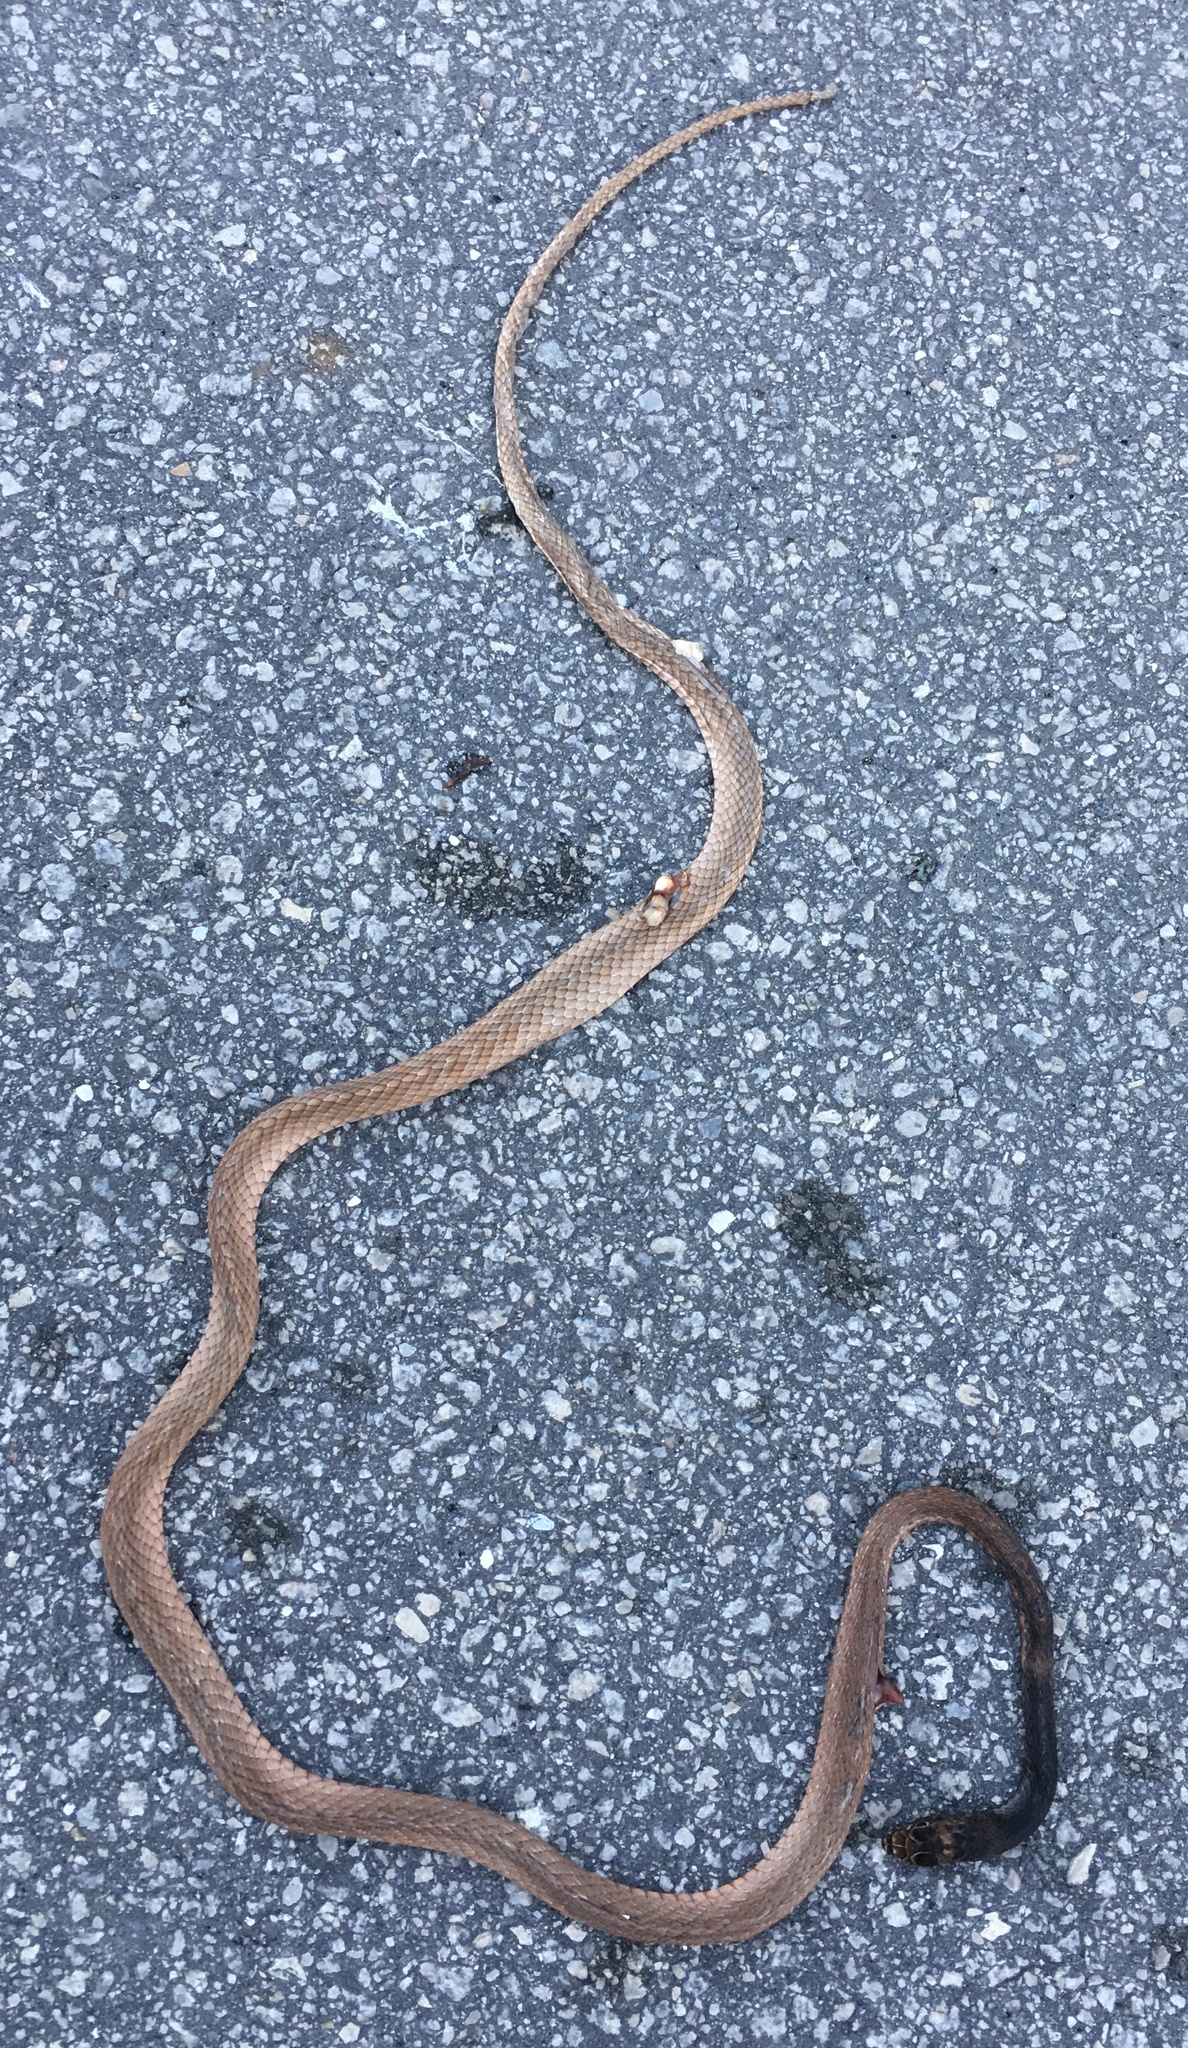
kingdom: Animalia
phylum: Chordata
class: Squamata
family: Colubridae
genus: Masticophis
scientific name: Masticophis flagellum
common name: Coachwhip
